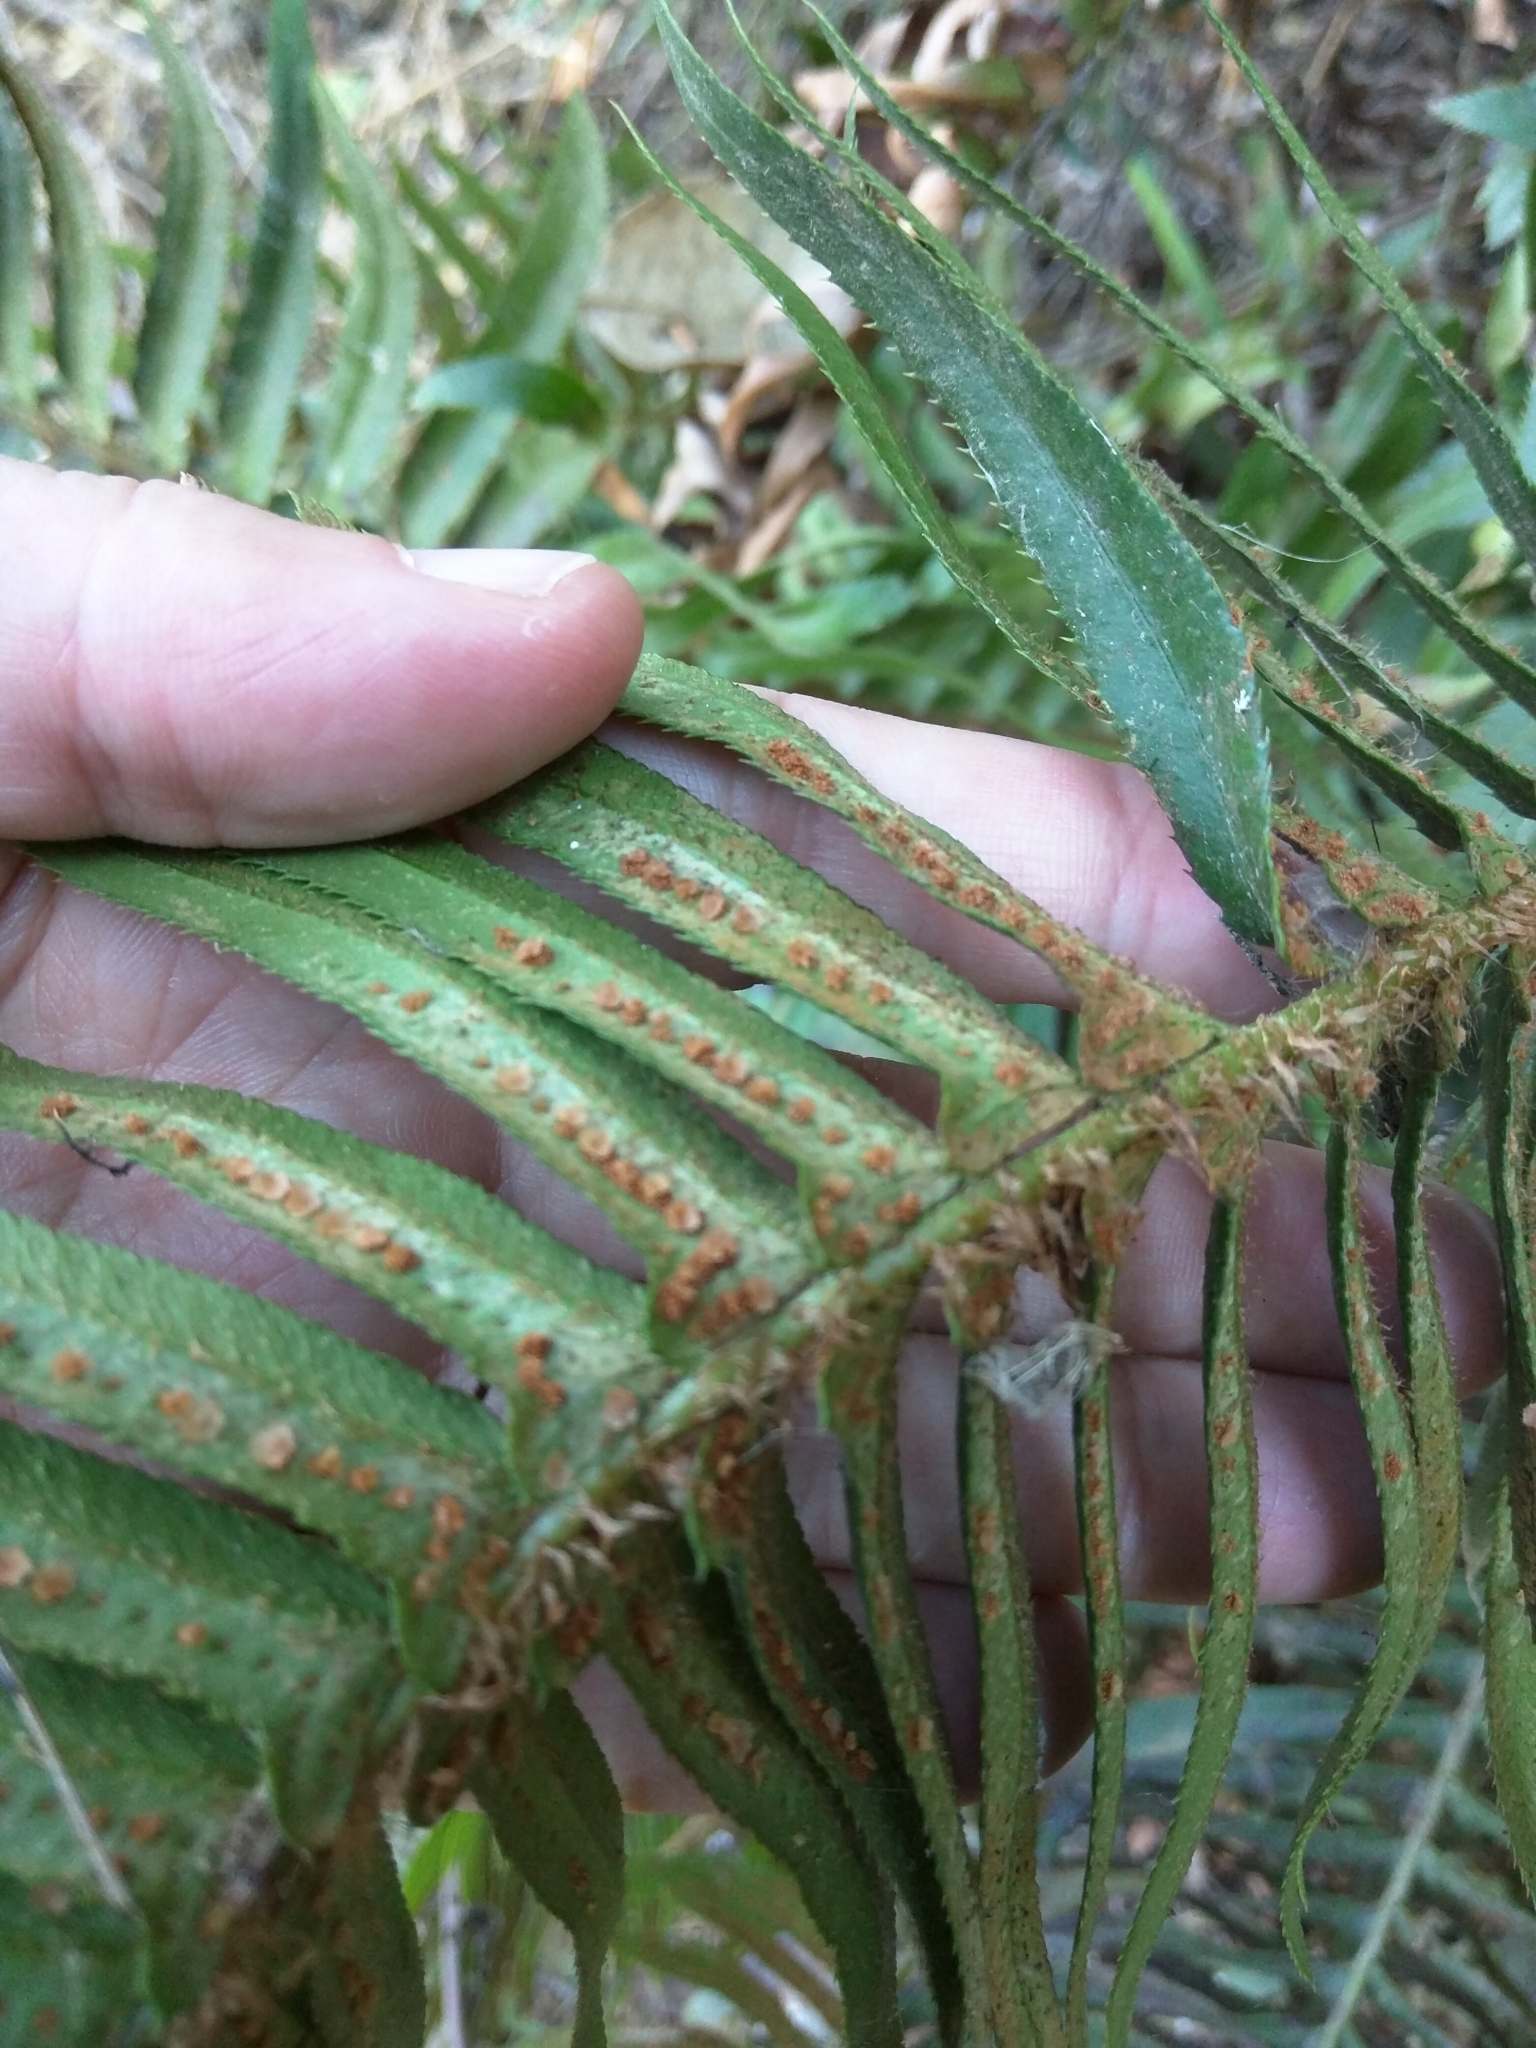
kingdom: Plantae
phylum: Tracheophyta
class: Polypodiopsida
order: Polypodiales
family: Dryopteridaceae
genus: Polystichum
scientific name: Polystichum munitum
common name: Western sword-fern
